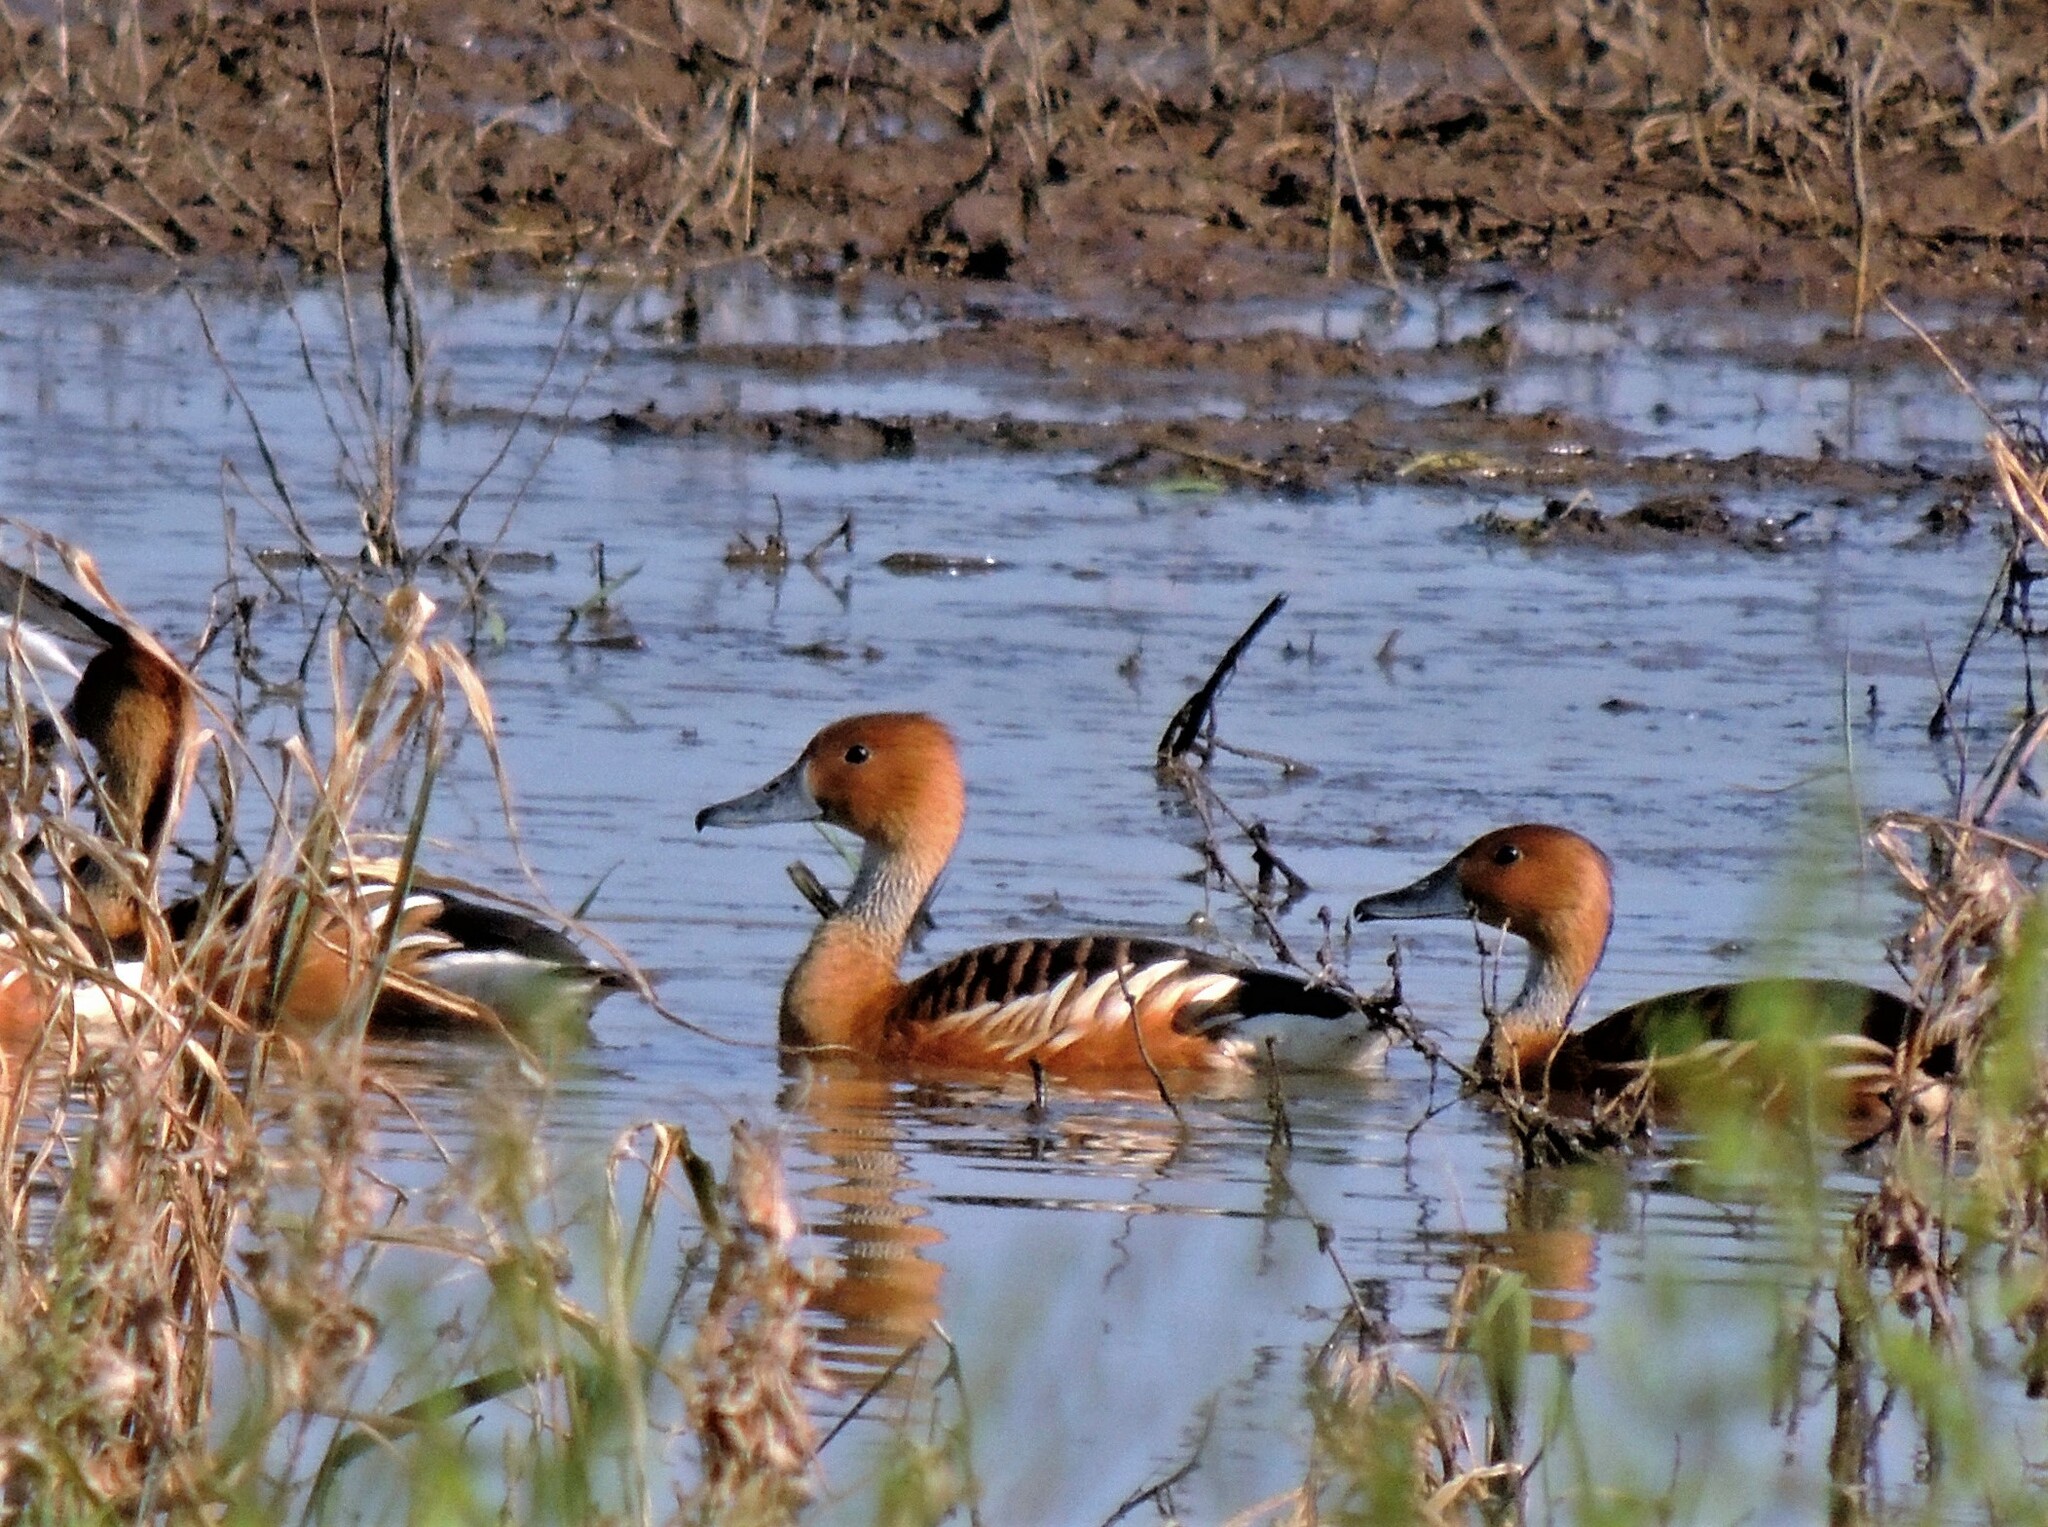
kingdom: Animalia
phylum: Chordata
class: Aves
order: Anseriformes
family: Anatidae
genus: Dendrocygna
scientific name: Dendrocygna bicolor
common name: Fulvous whistling duck
